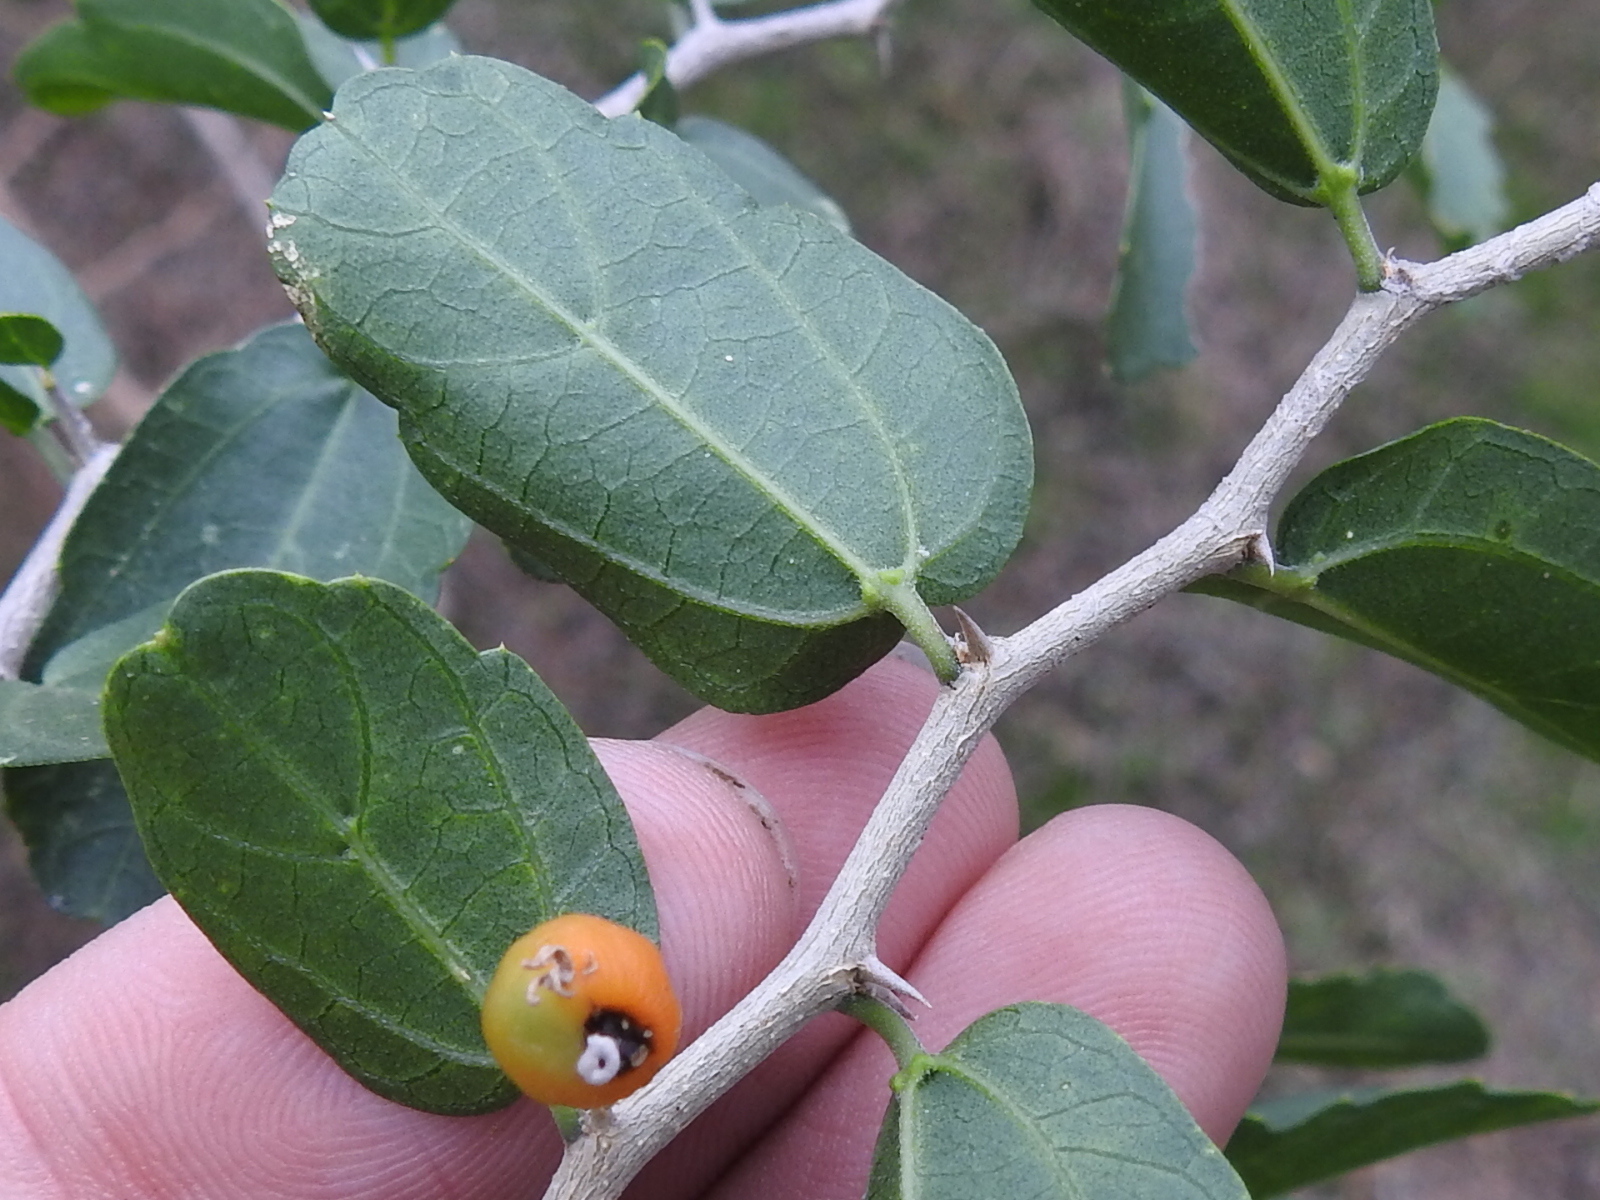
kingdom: Plantae
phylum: Tracheophyta
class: Magnoliopsida
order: Rosales
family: Cannabaceae
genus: Celtis
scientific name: Celtis pallida
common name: Desert hackberry
